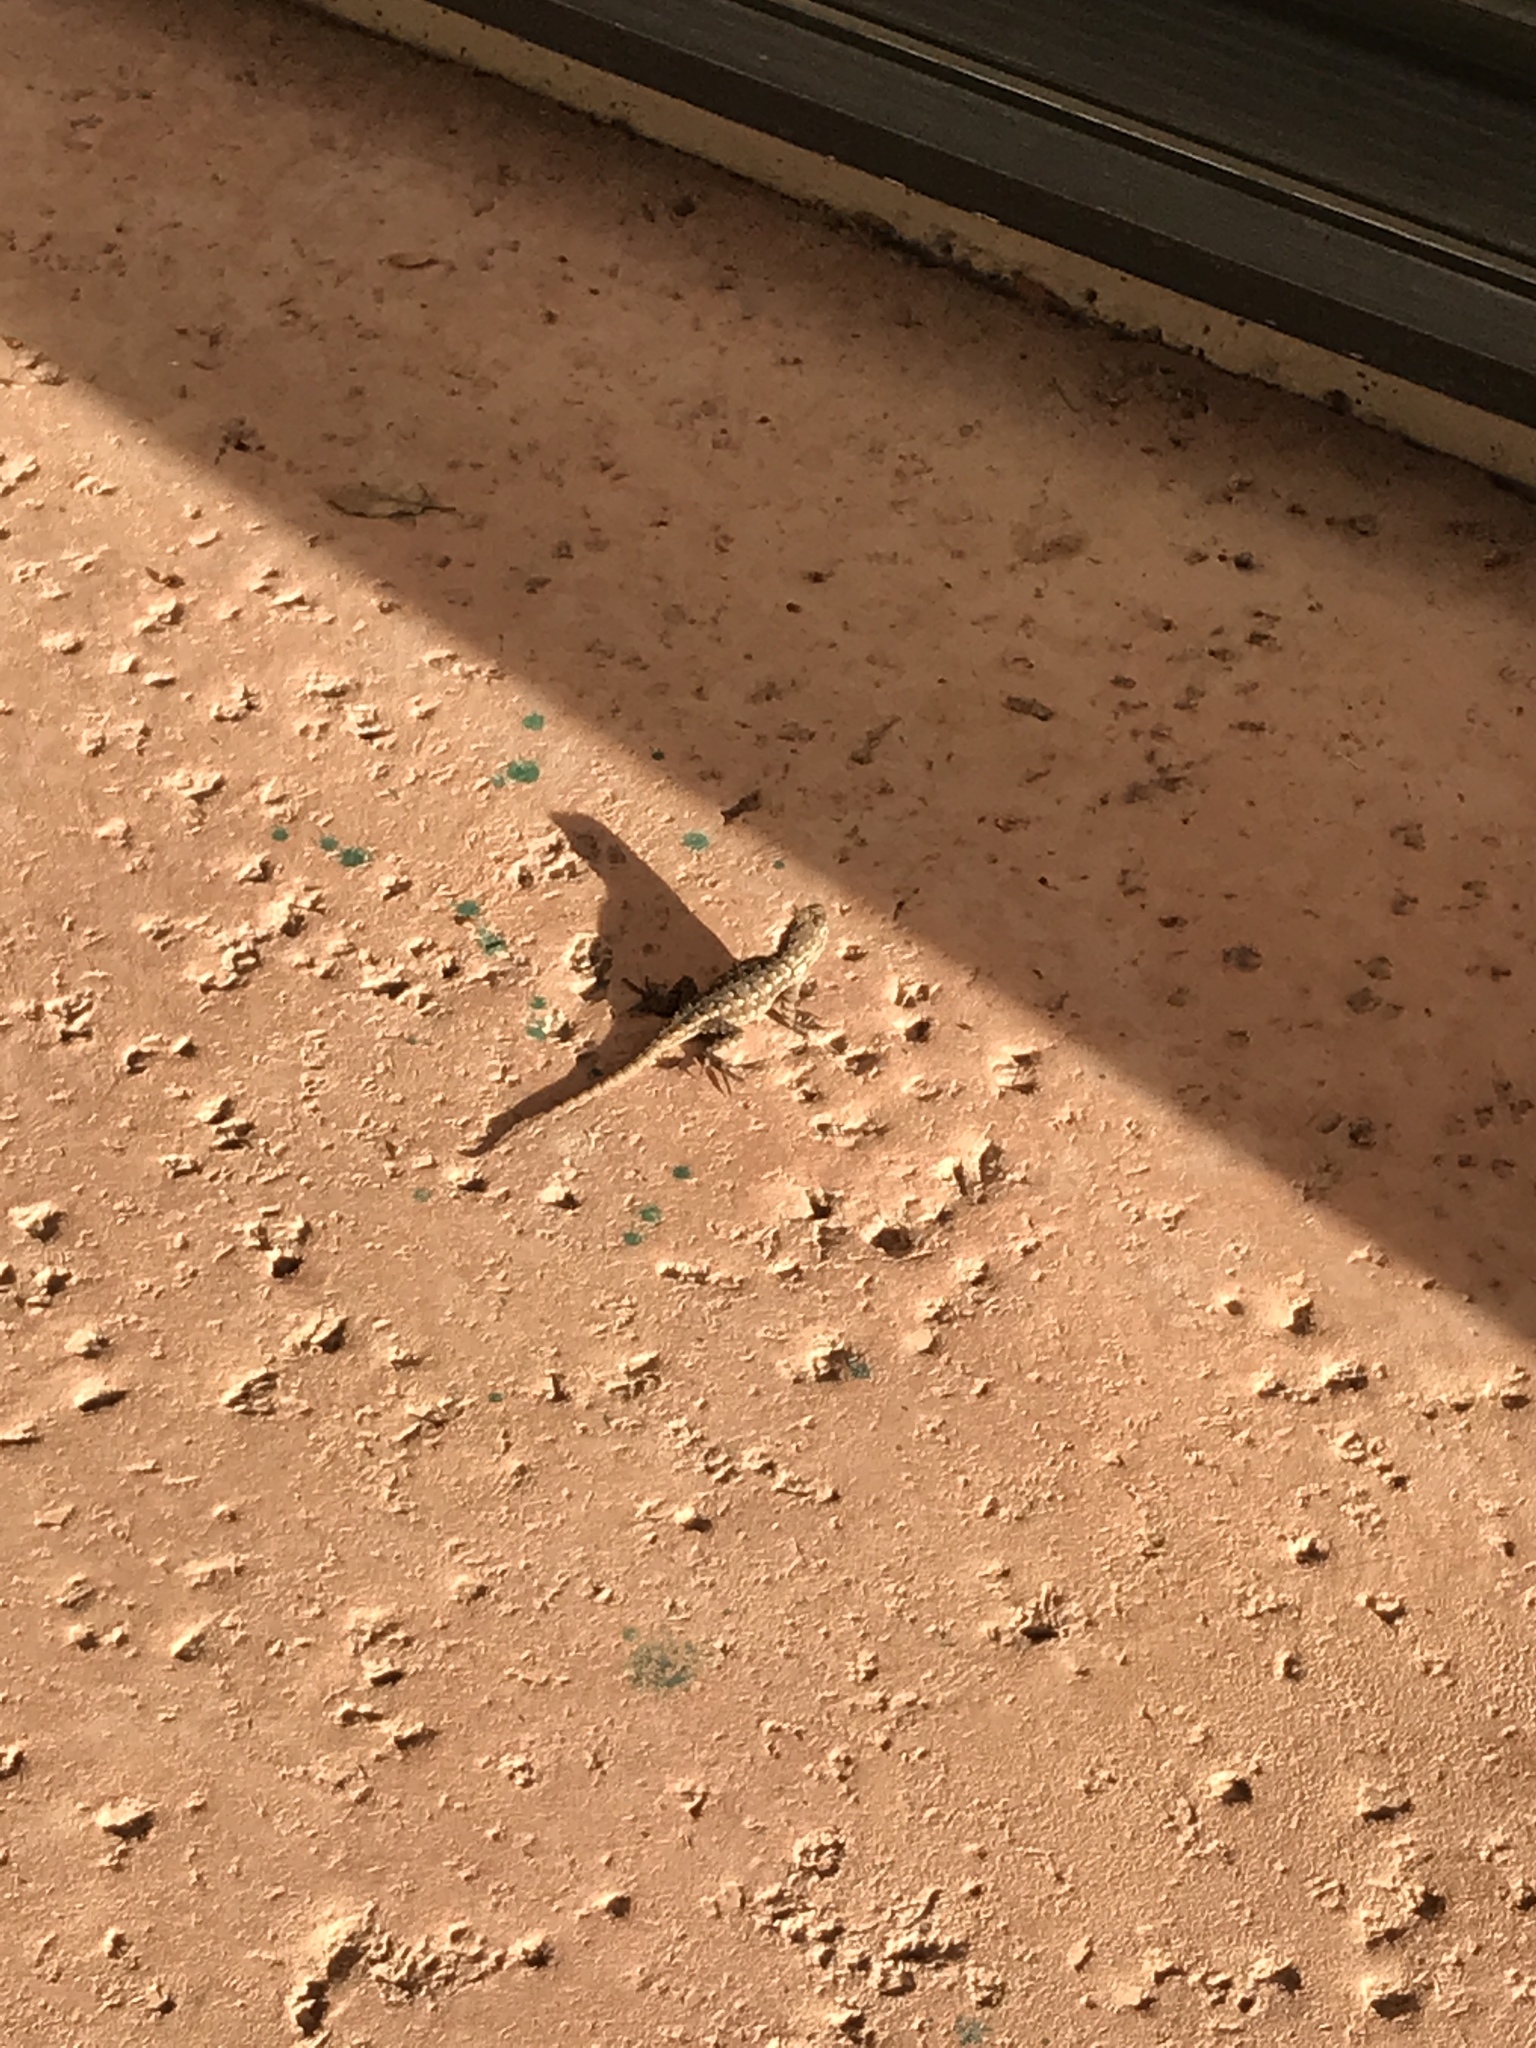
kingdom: Animalia
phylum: Chordata
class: Squamata
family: Phrynosomatidae
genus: Sceloporus
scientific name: Sceloporus occidentalis
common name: Western fence lizard
